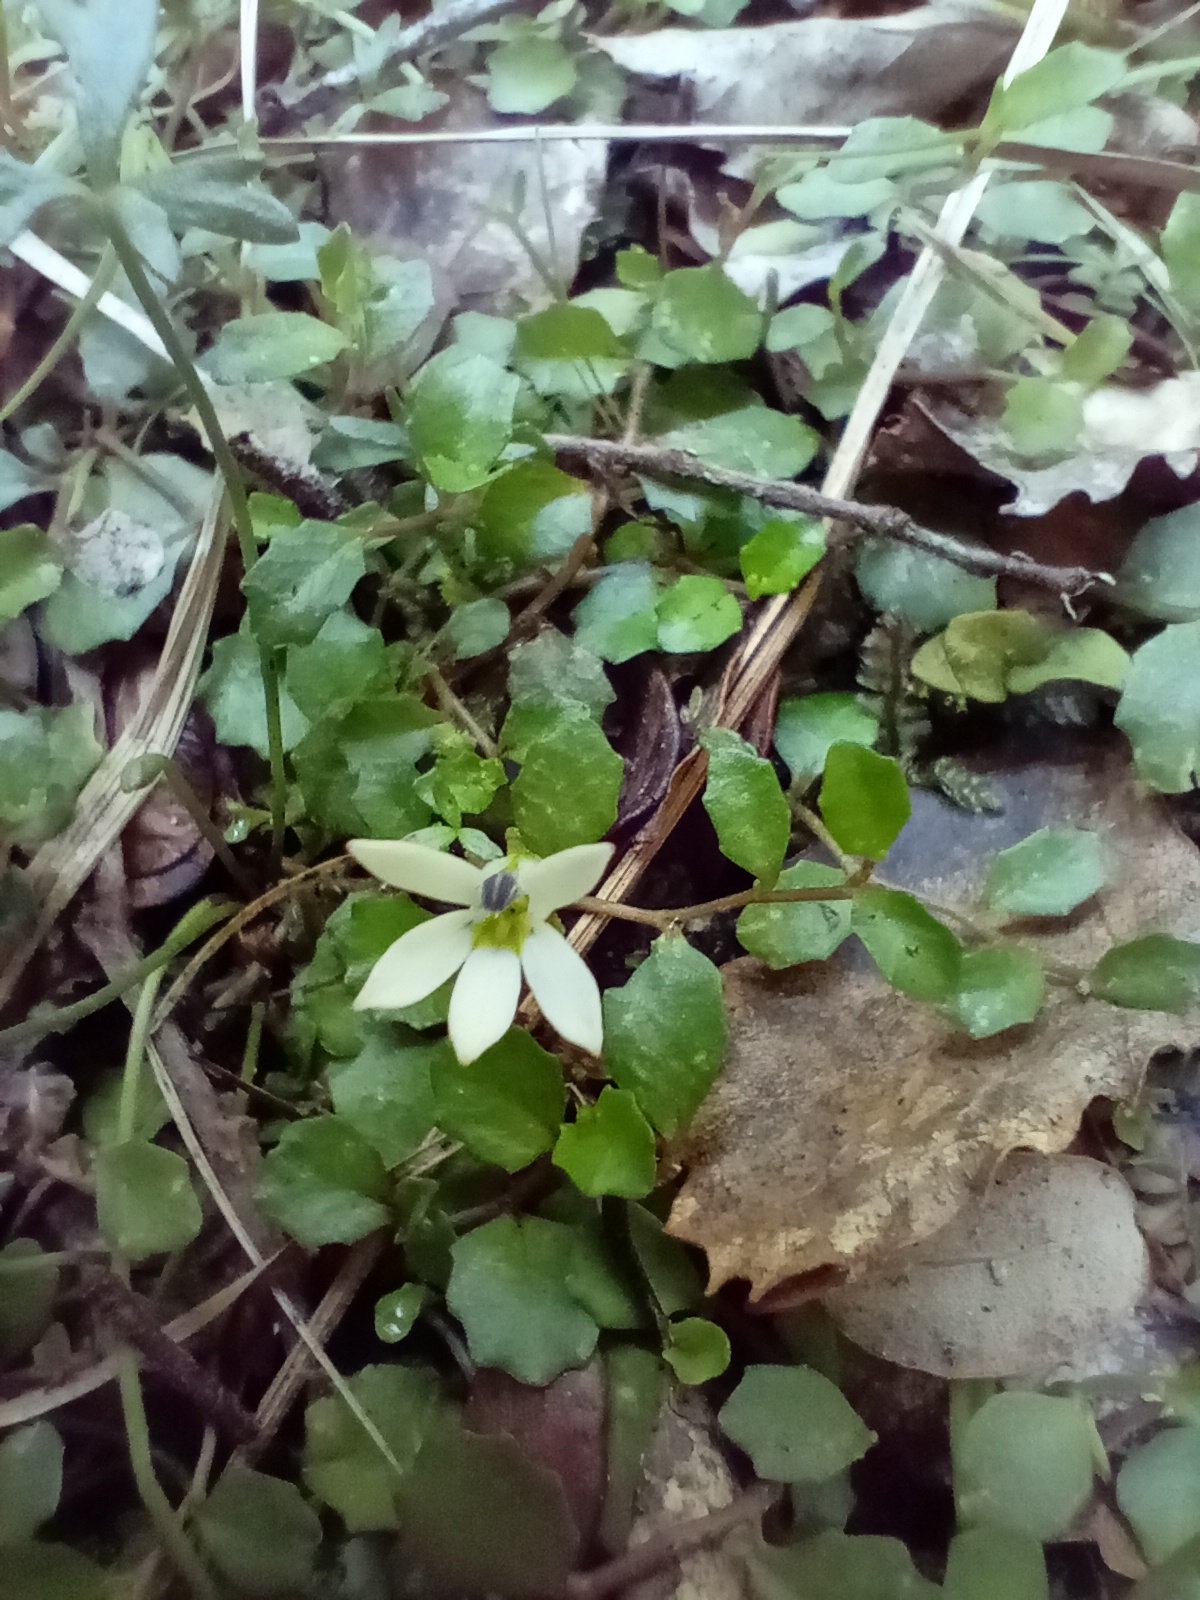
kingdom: Plantae
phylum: Tracheophyta
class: Magnoliopsida
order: Asterales
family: Campanulaceae
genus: Lobelia
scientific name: Lobelia angulata
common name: Lawn lobelia
